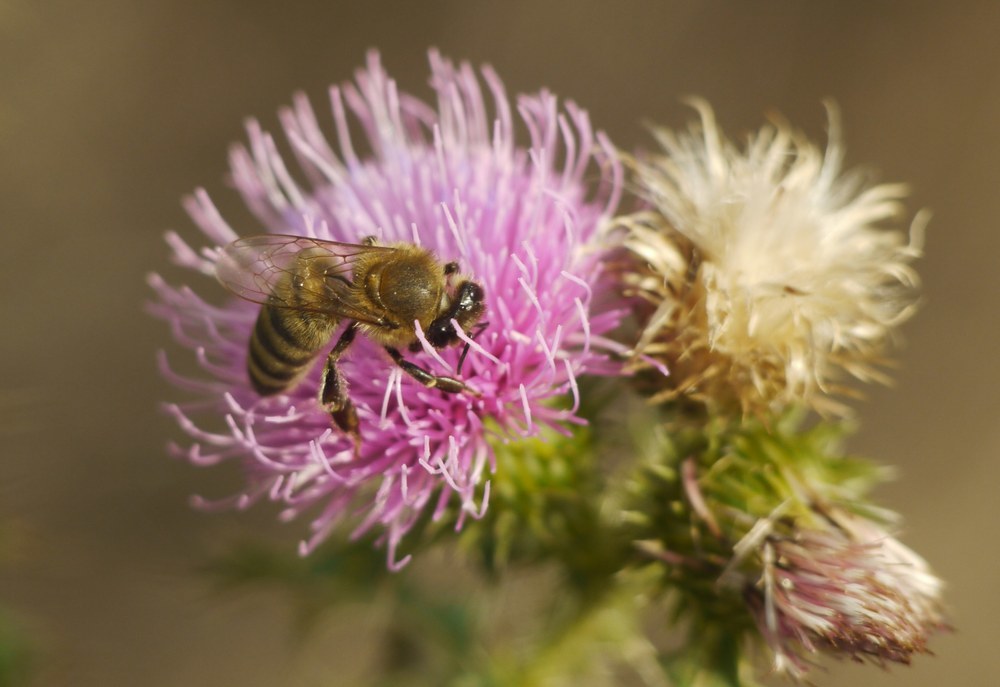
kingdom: Animalia
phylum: Arthropoda
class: Insecta
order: Hymenoptera
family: Apidae
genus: Apis
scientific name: Apis mellifera
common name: Honey bee
